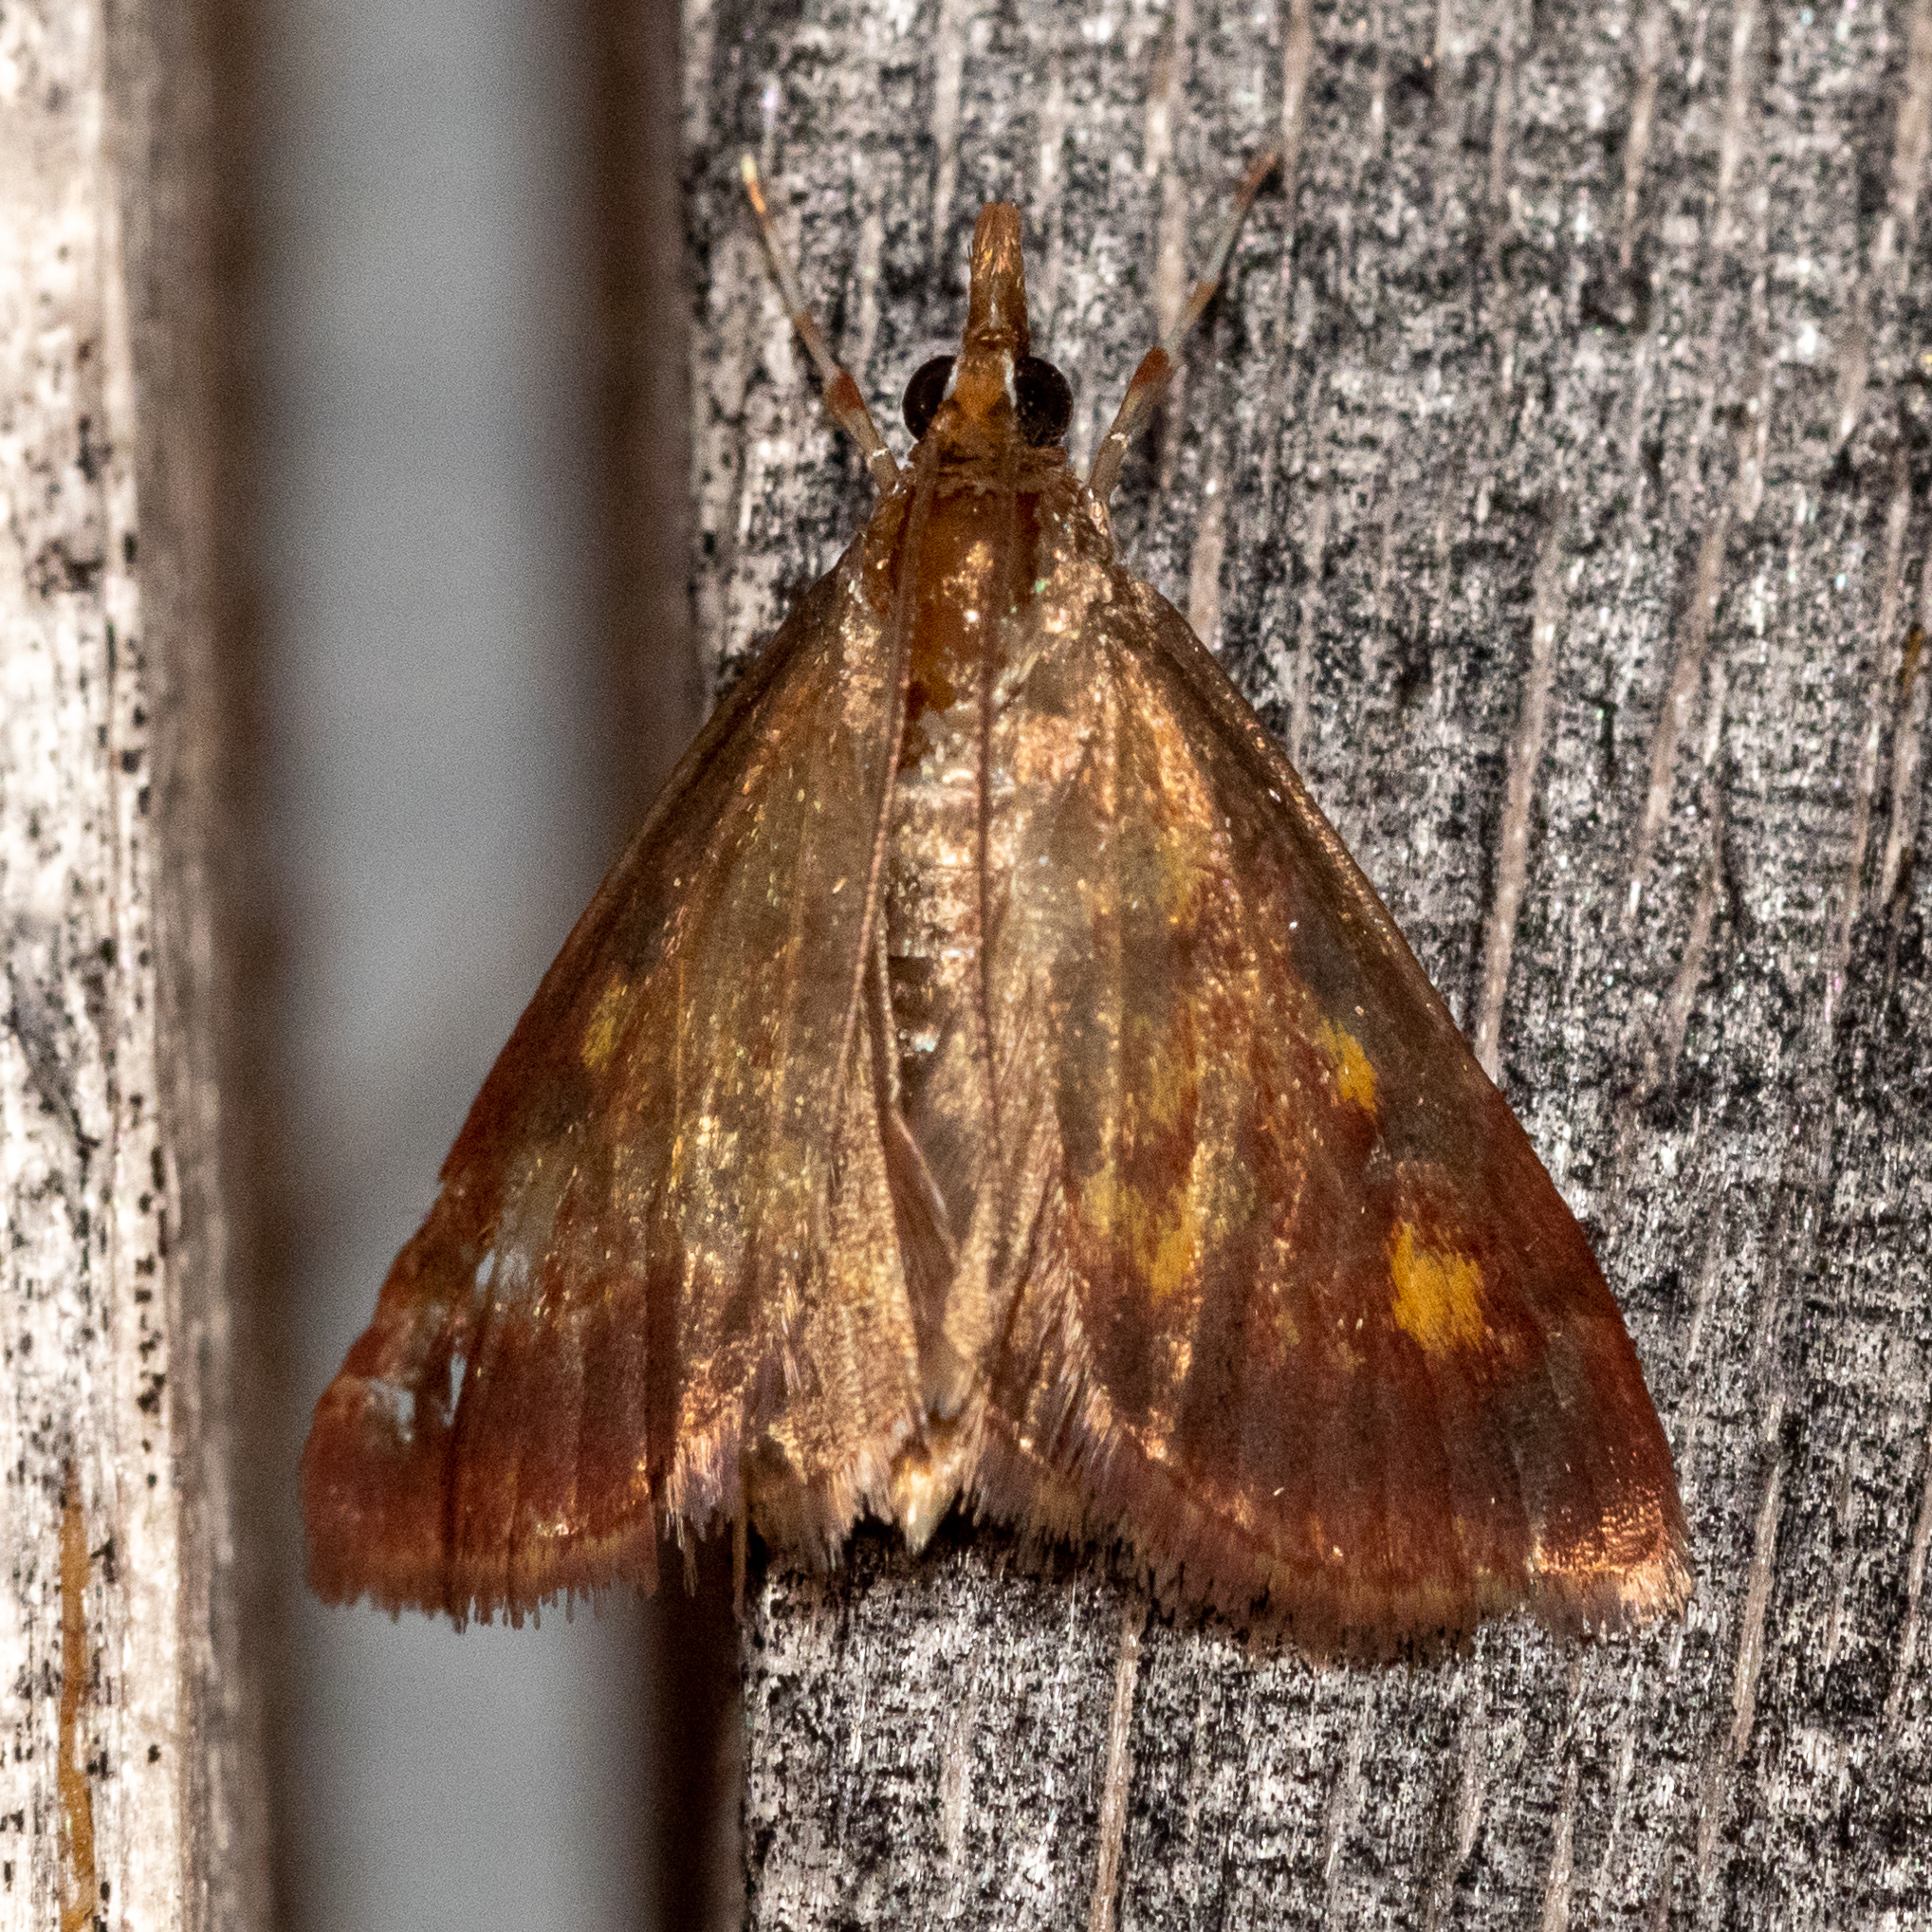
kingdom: Animalia
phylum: Arthropoda
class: Insecta
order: Lepidoptera
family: Crambidae
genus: Pyrausta
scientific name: Pyrausta acrionalis
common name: Mint-loving pyrausta moth
